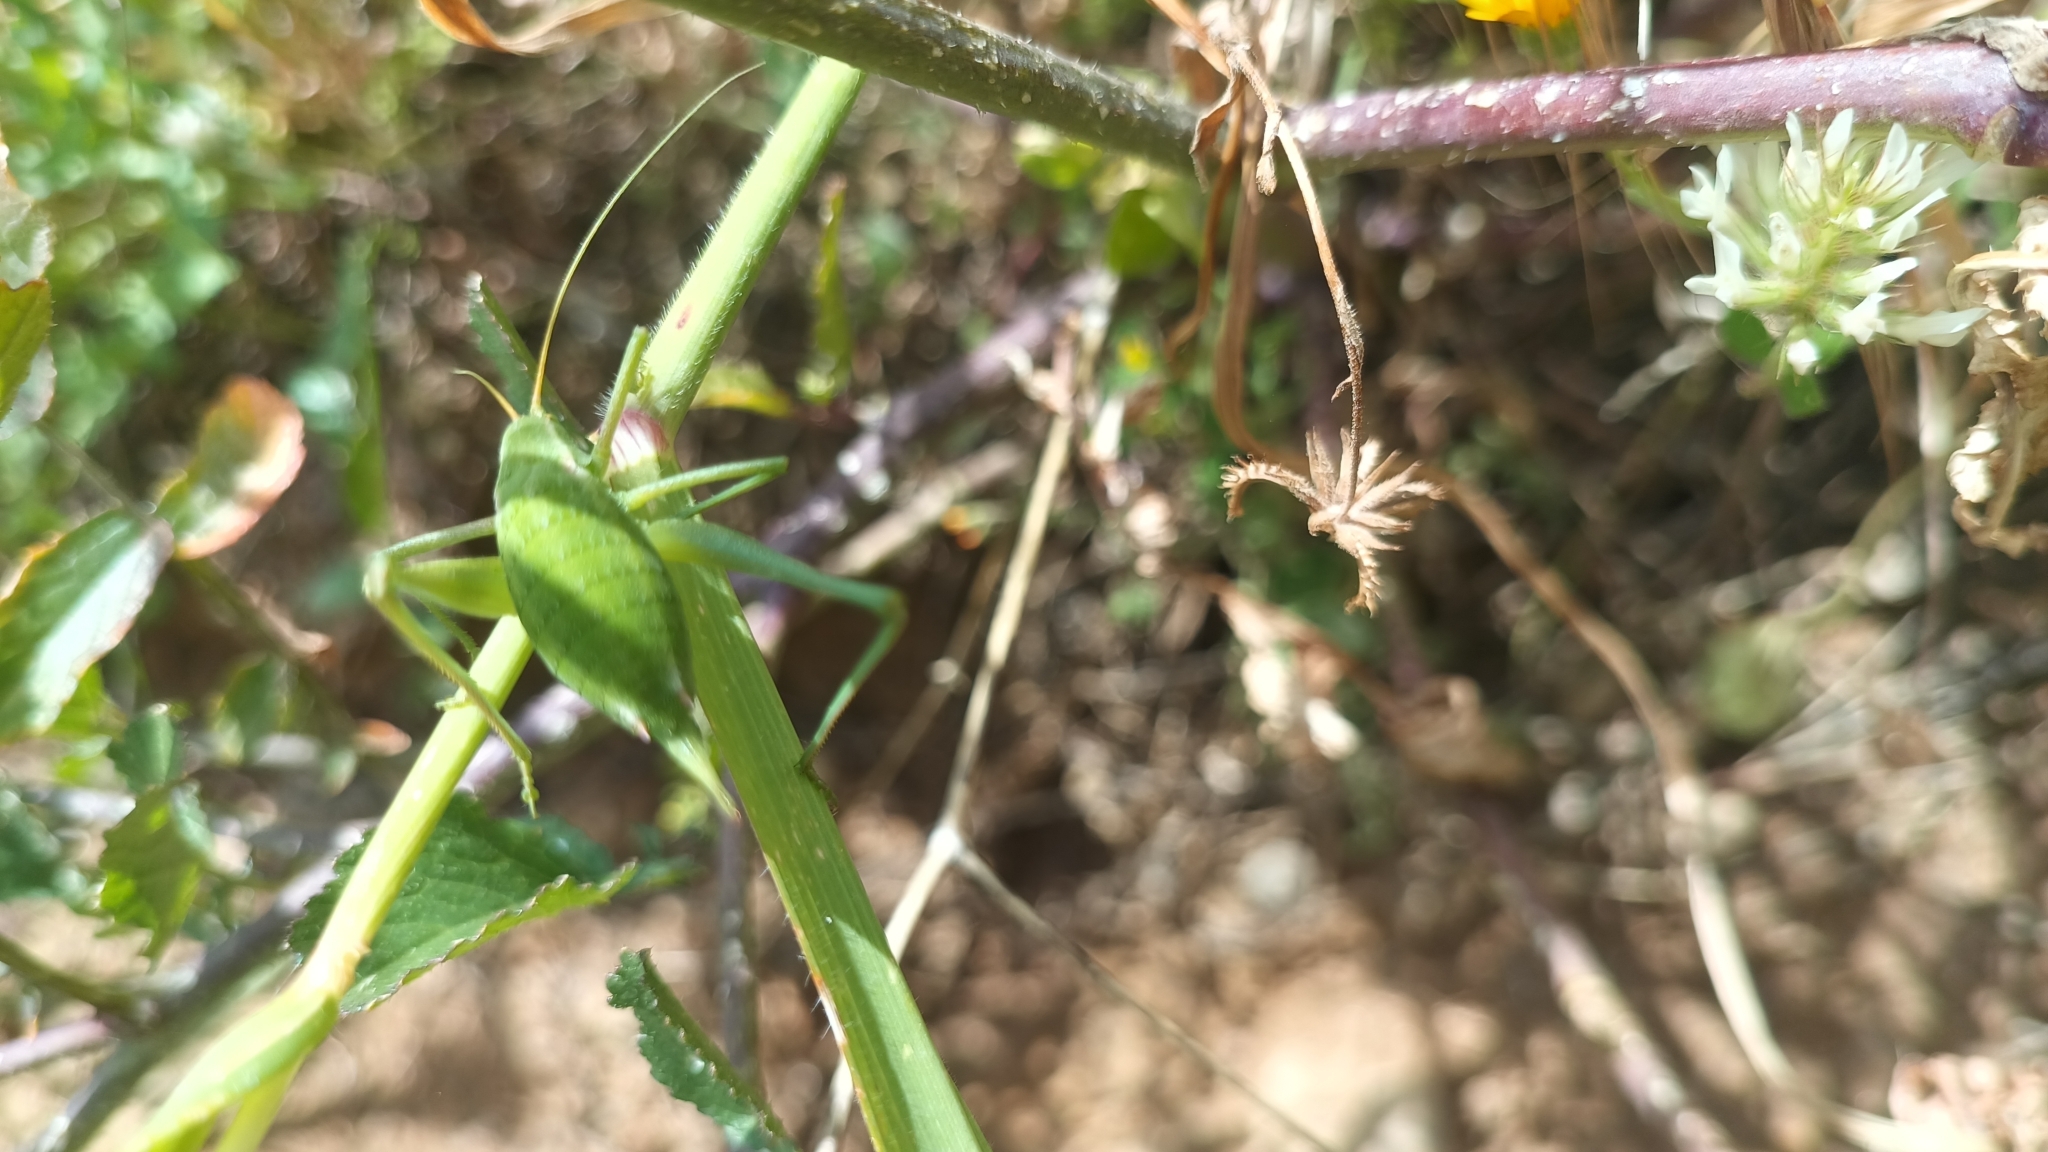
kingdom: Animalia
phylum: Arthropoda
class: Insecta
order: Orthoptera
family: Tettigoniidae
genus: Odontura
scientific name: Odontura stenoxypha
